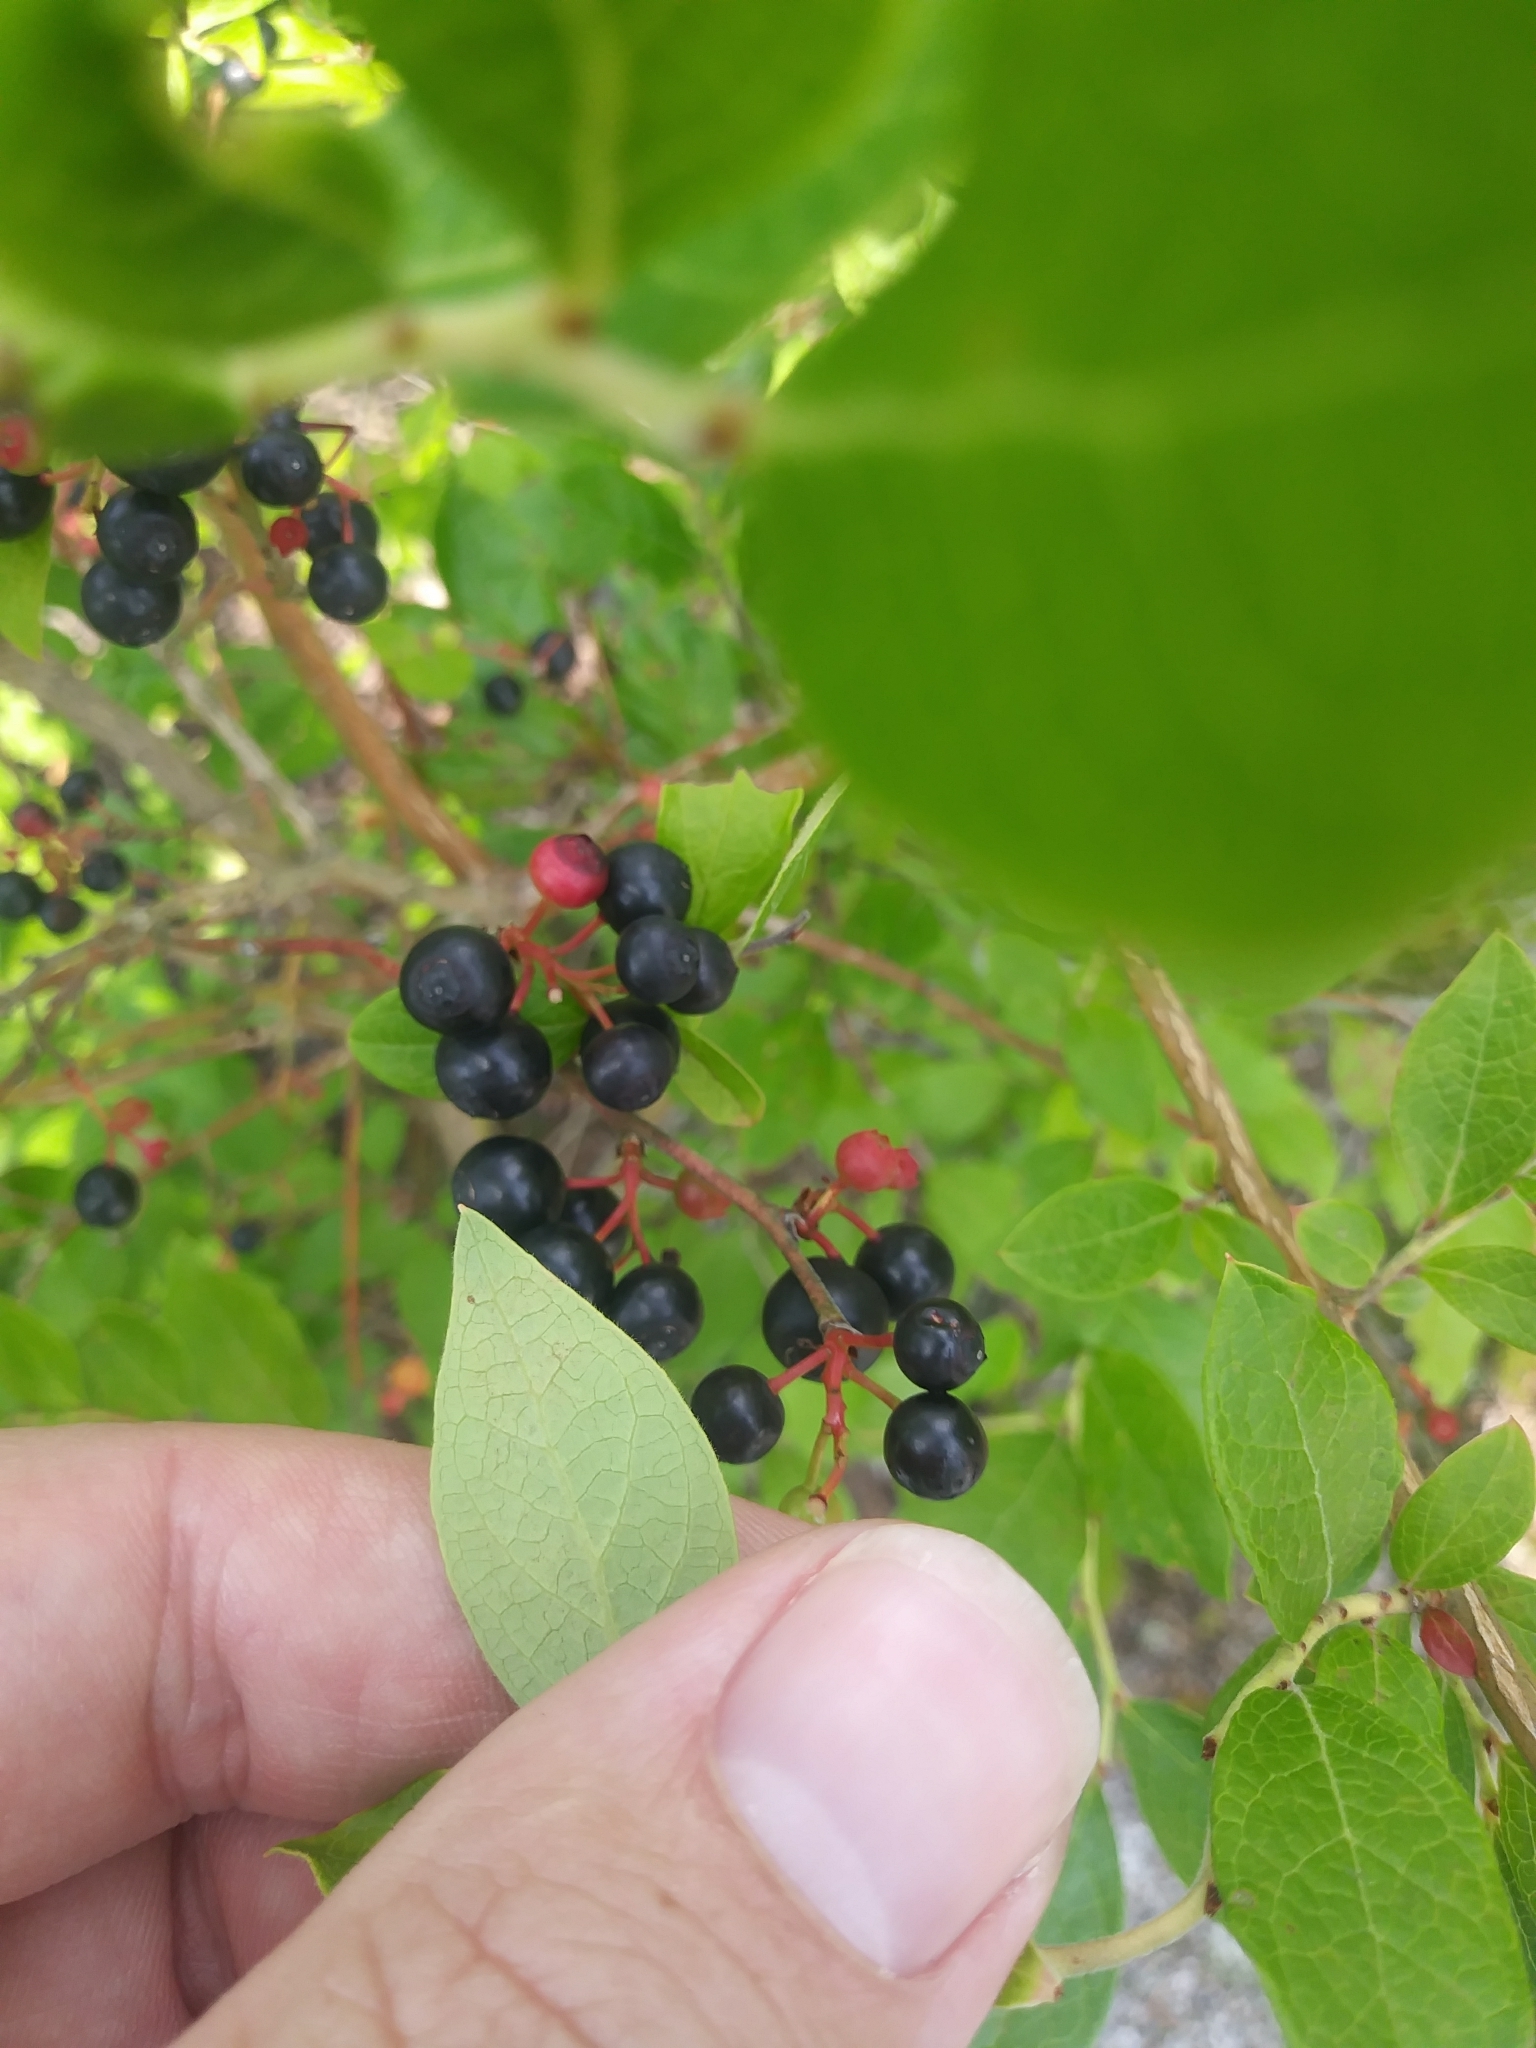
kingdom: Plantae
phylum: Tracheophyta
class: Magnoliopsida
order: Ericales
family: Ericaceae
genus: Vaccinium
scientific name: Vaccinium corymbosum
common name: Blueberry
